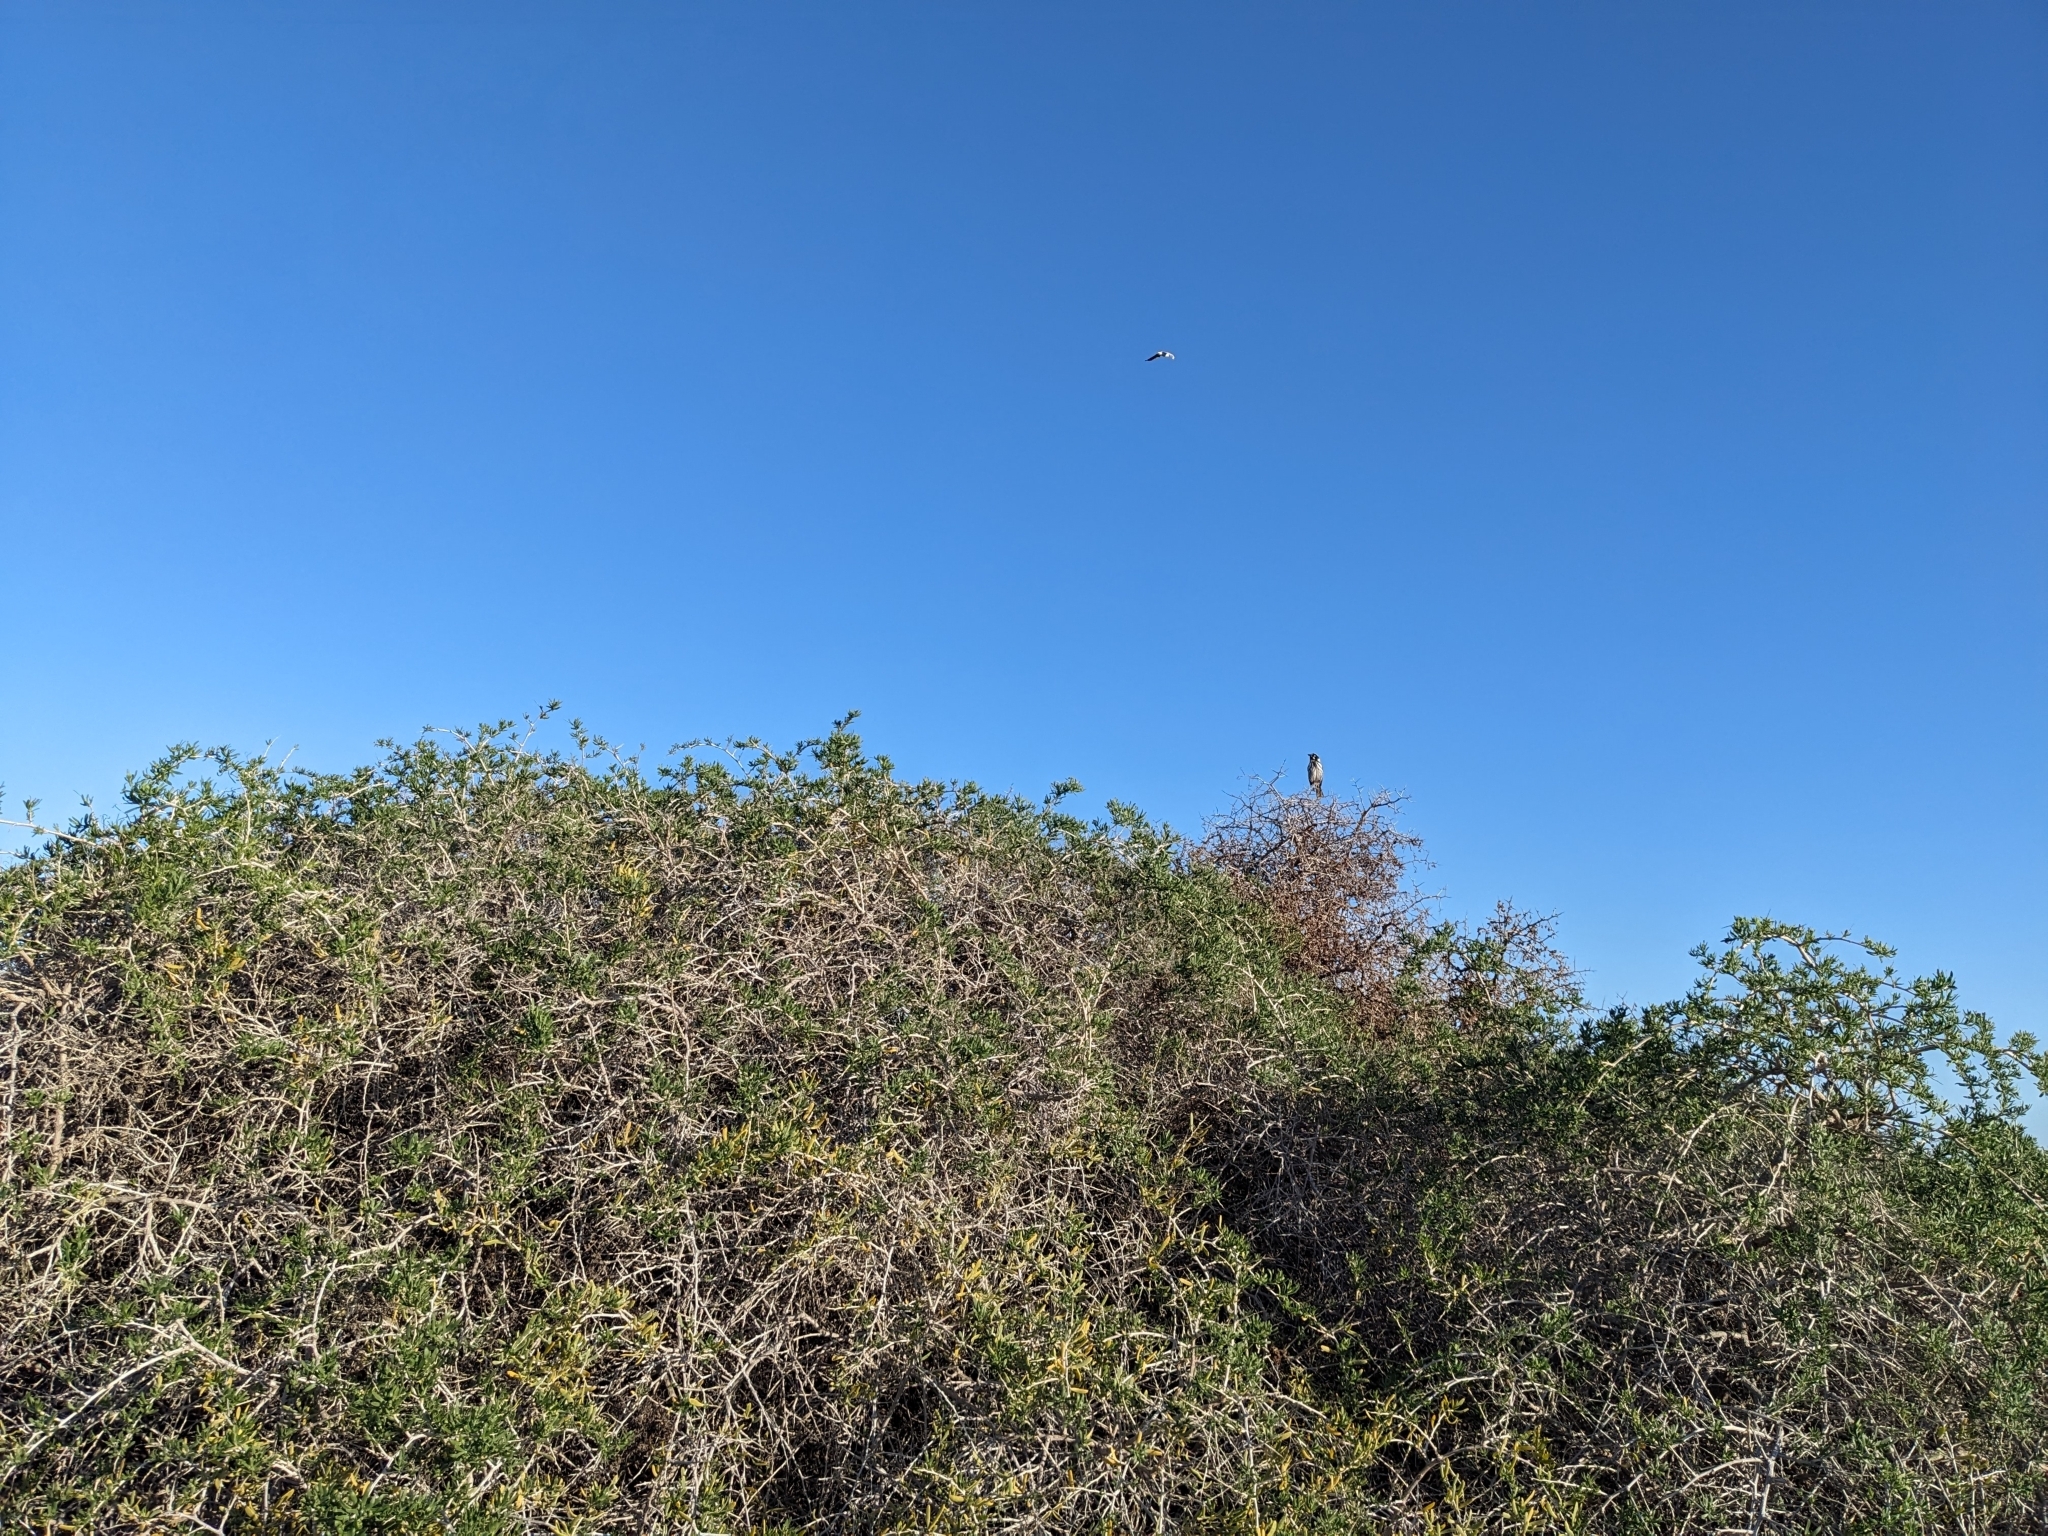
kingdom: Animalia
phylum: Chordata
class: Aves
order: Passeriformes
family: Meliphagidae
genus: Phylidonyris
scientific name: Phylidonyris novaehollandiae
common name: New holland honeyeater
